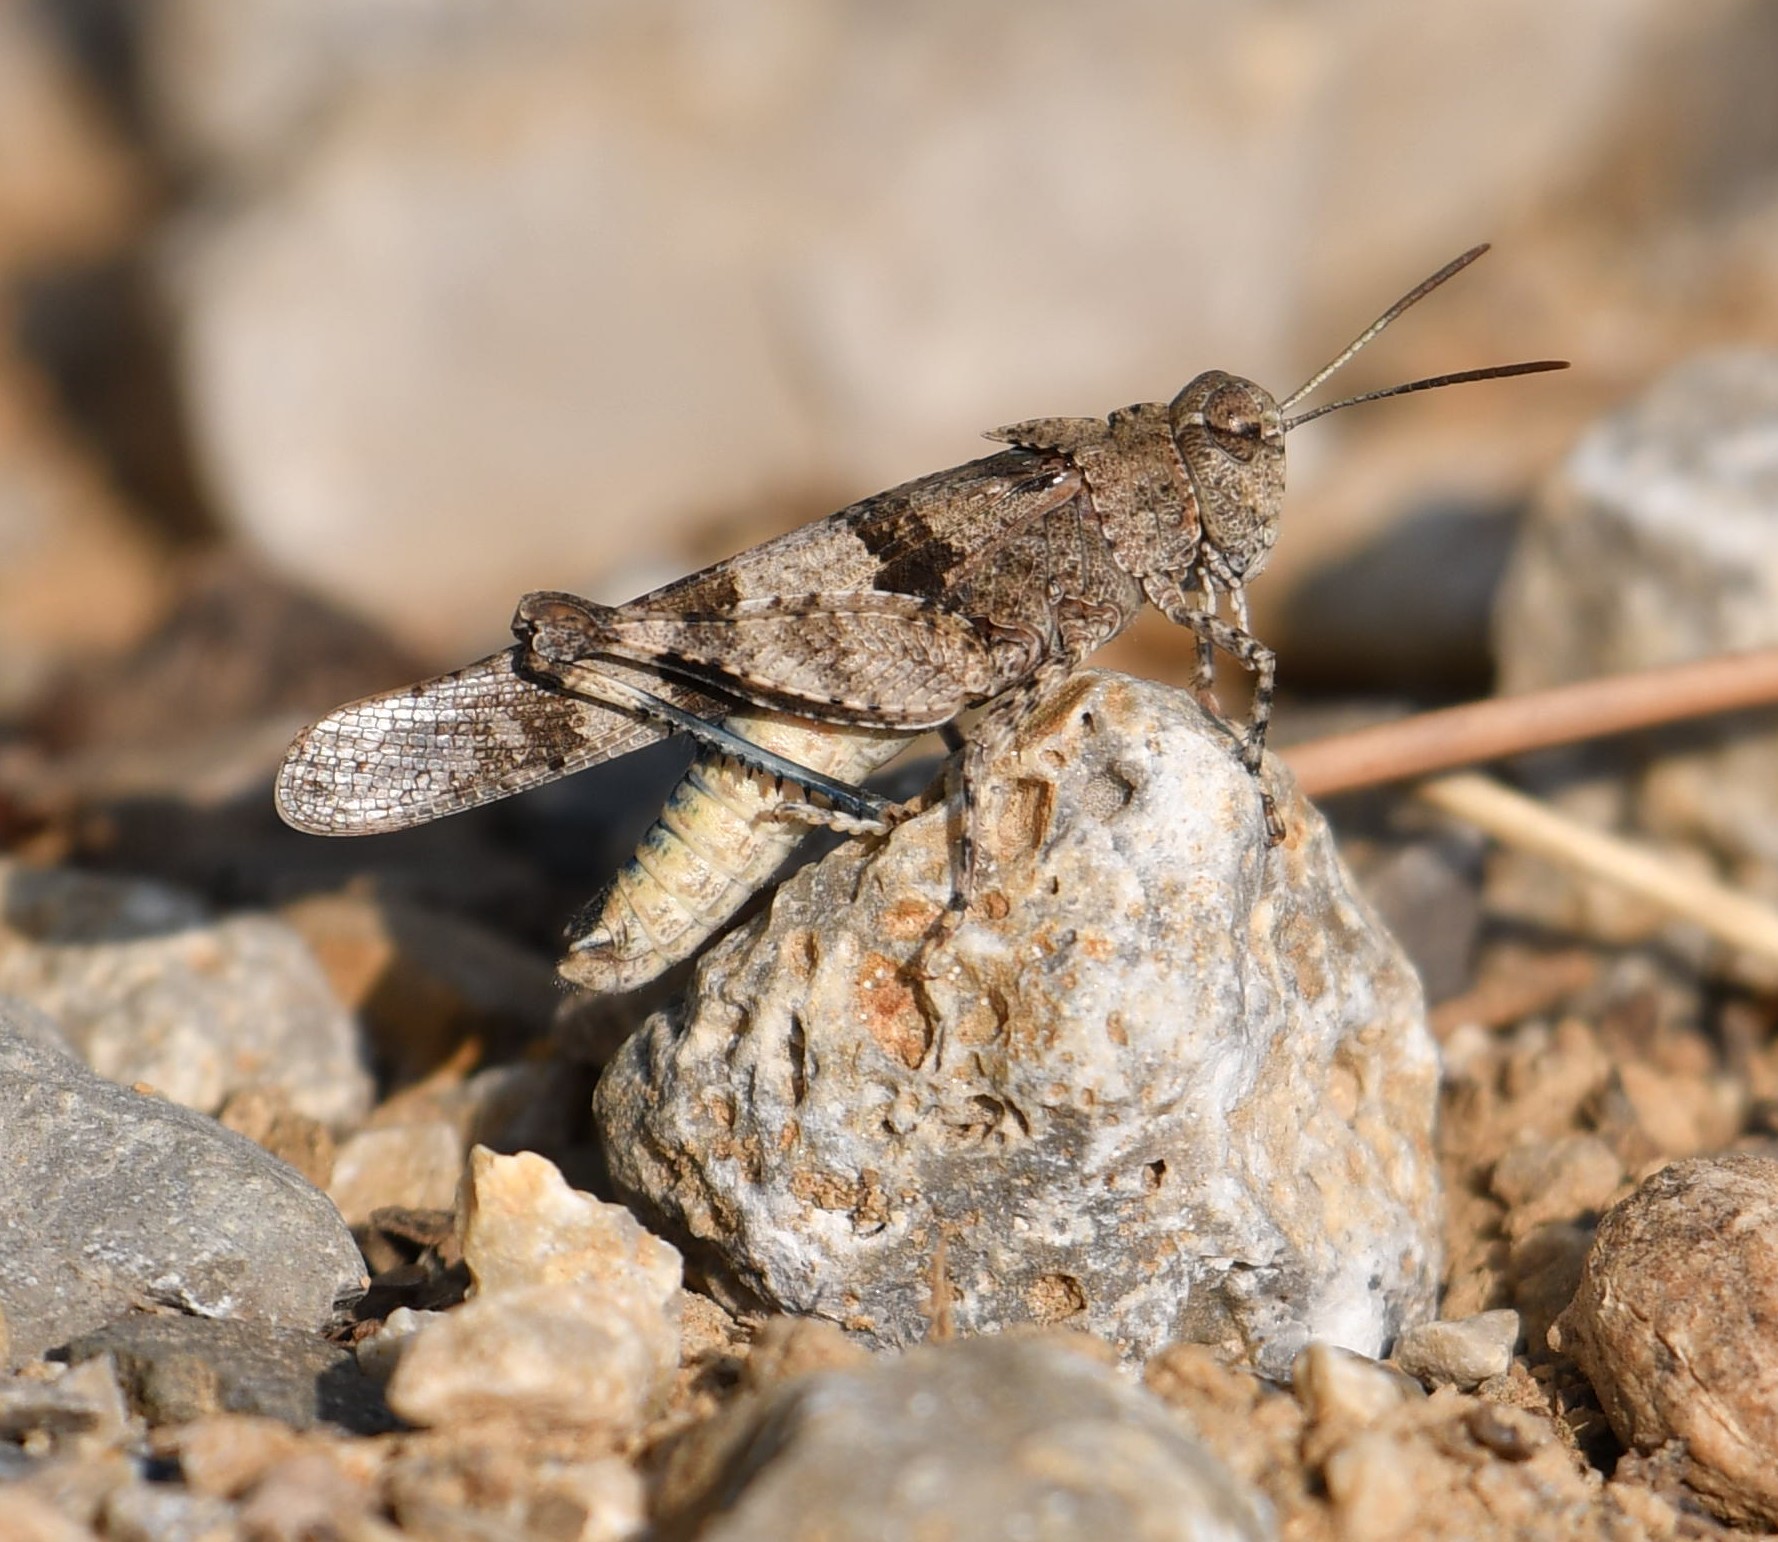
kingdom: Animalia
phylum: Arthropoda
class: Insecta
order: Orthoptera
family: Acrididae
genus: Oedipoda
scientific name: Oedipoda caerulescens
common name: Blue-winged grasshopper
